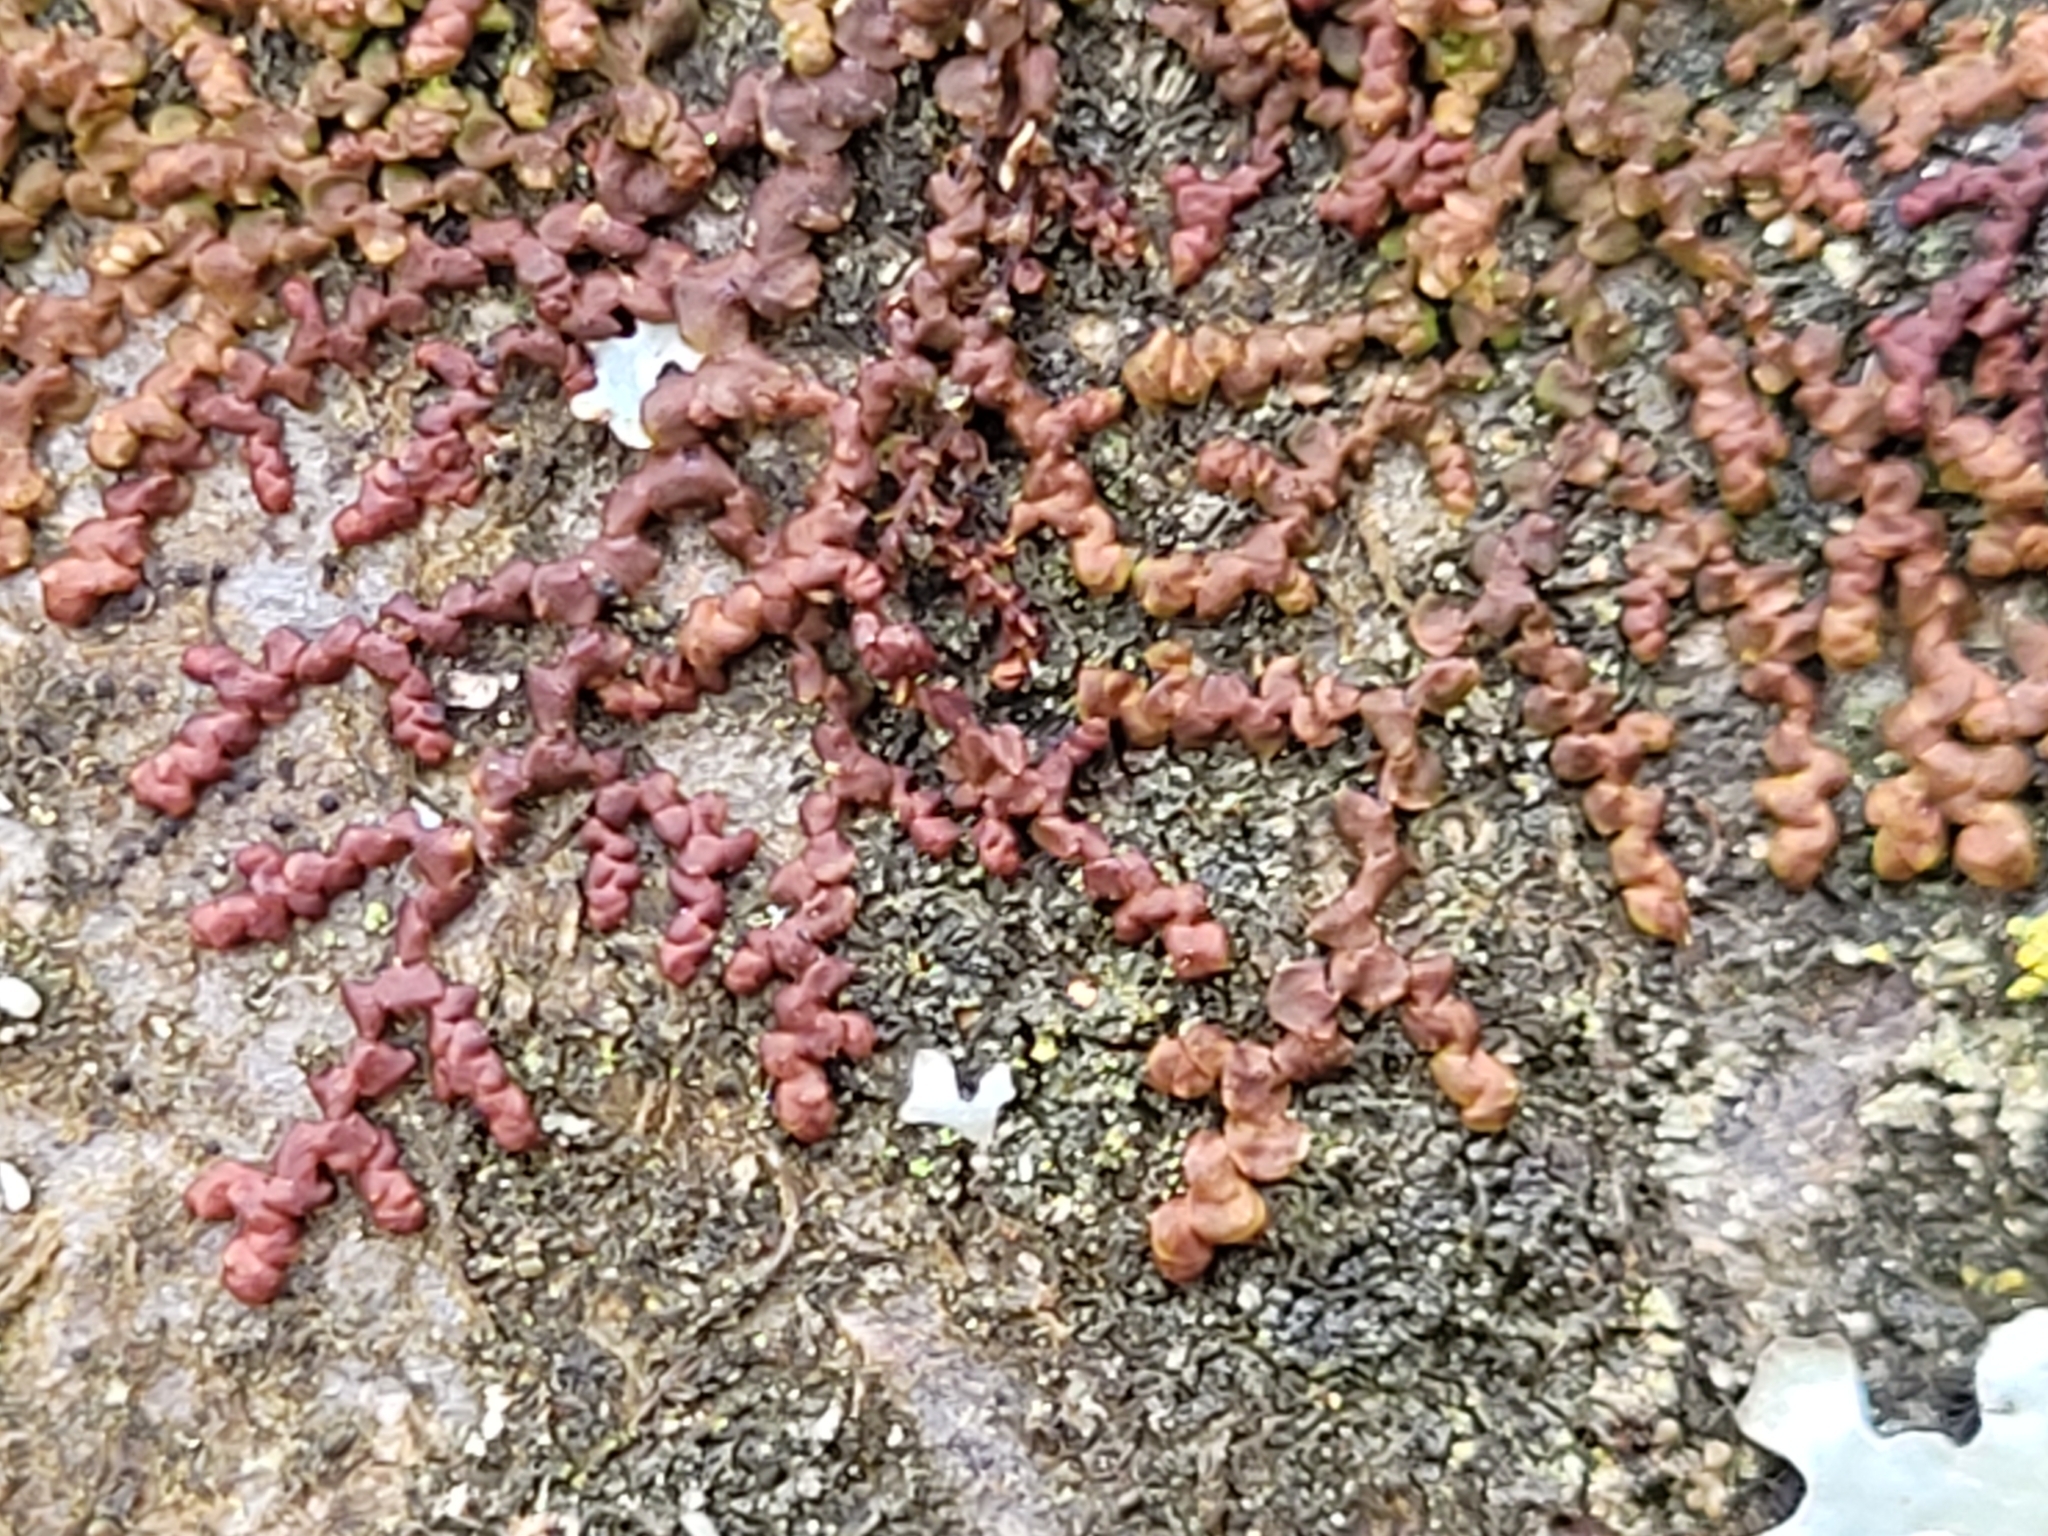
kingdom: Plantae
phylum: Marchantiophyta
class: Jungermanniopsida
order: Porellales
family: Frullaniaceae
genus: Frullania
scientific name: Frullania dilatata
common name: Dilated scalewort
